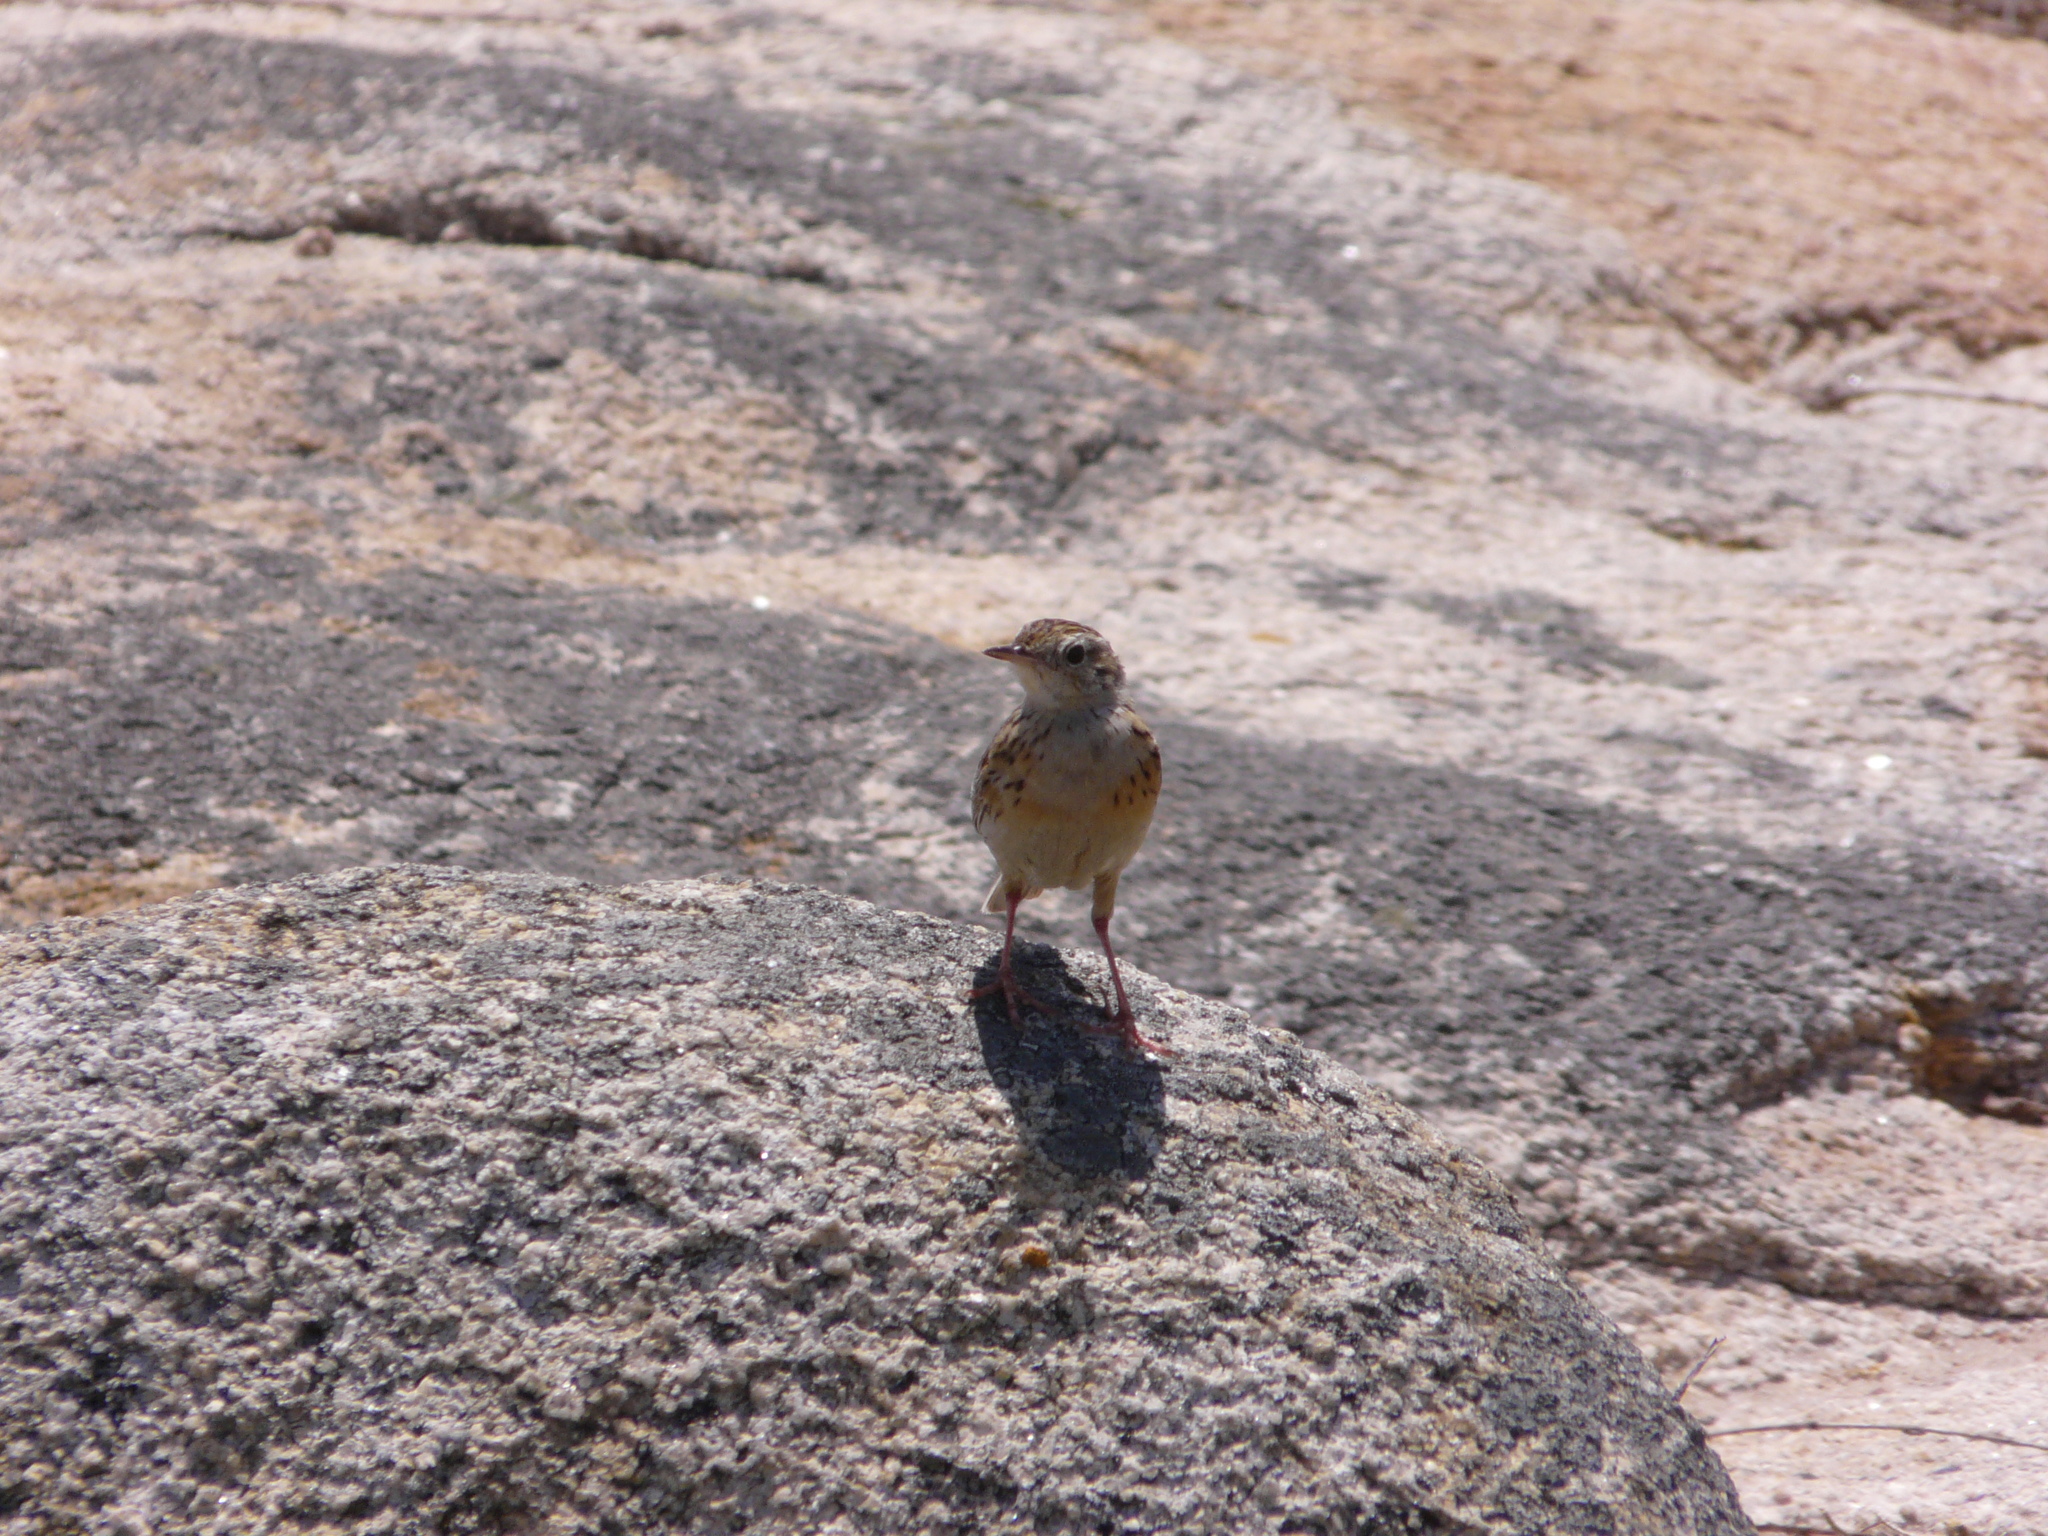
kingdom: Animalia
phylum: Chordata
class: Aves
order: Passeriformes
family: Motacillidae
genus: Anthus
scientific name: Anthus chii
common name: Yellowish pipit
